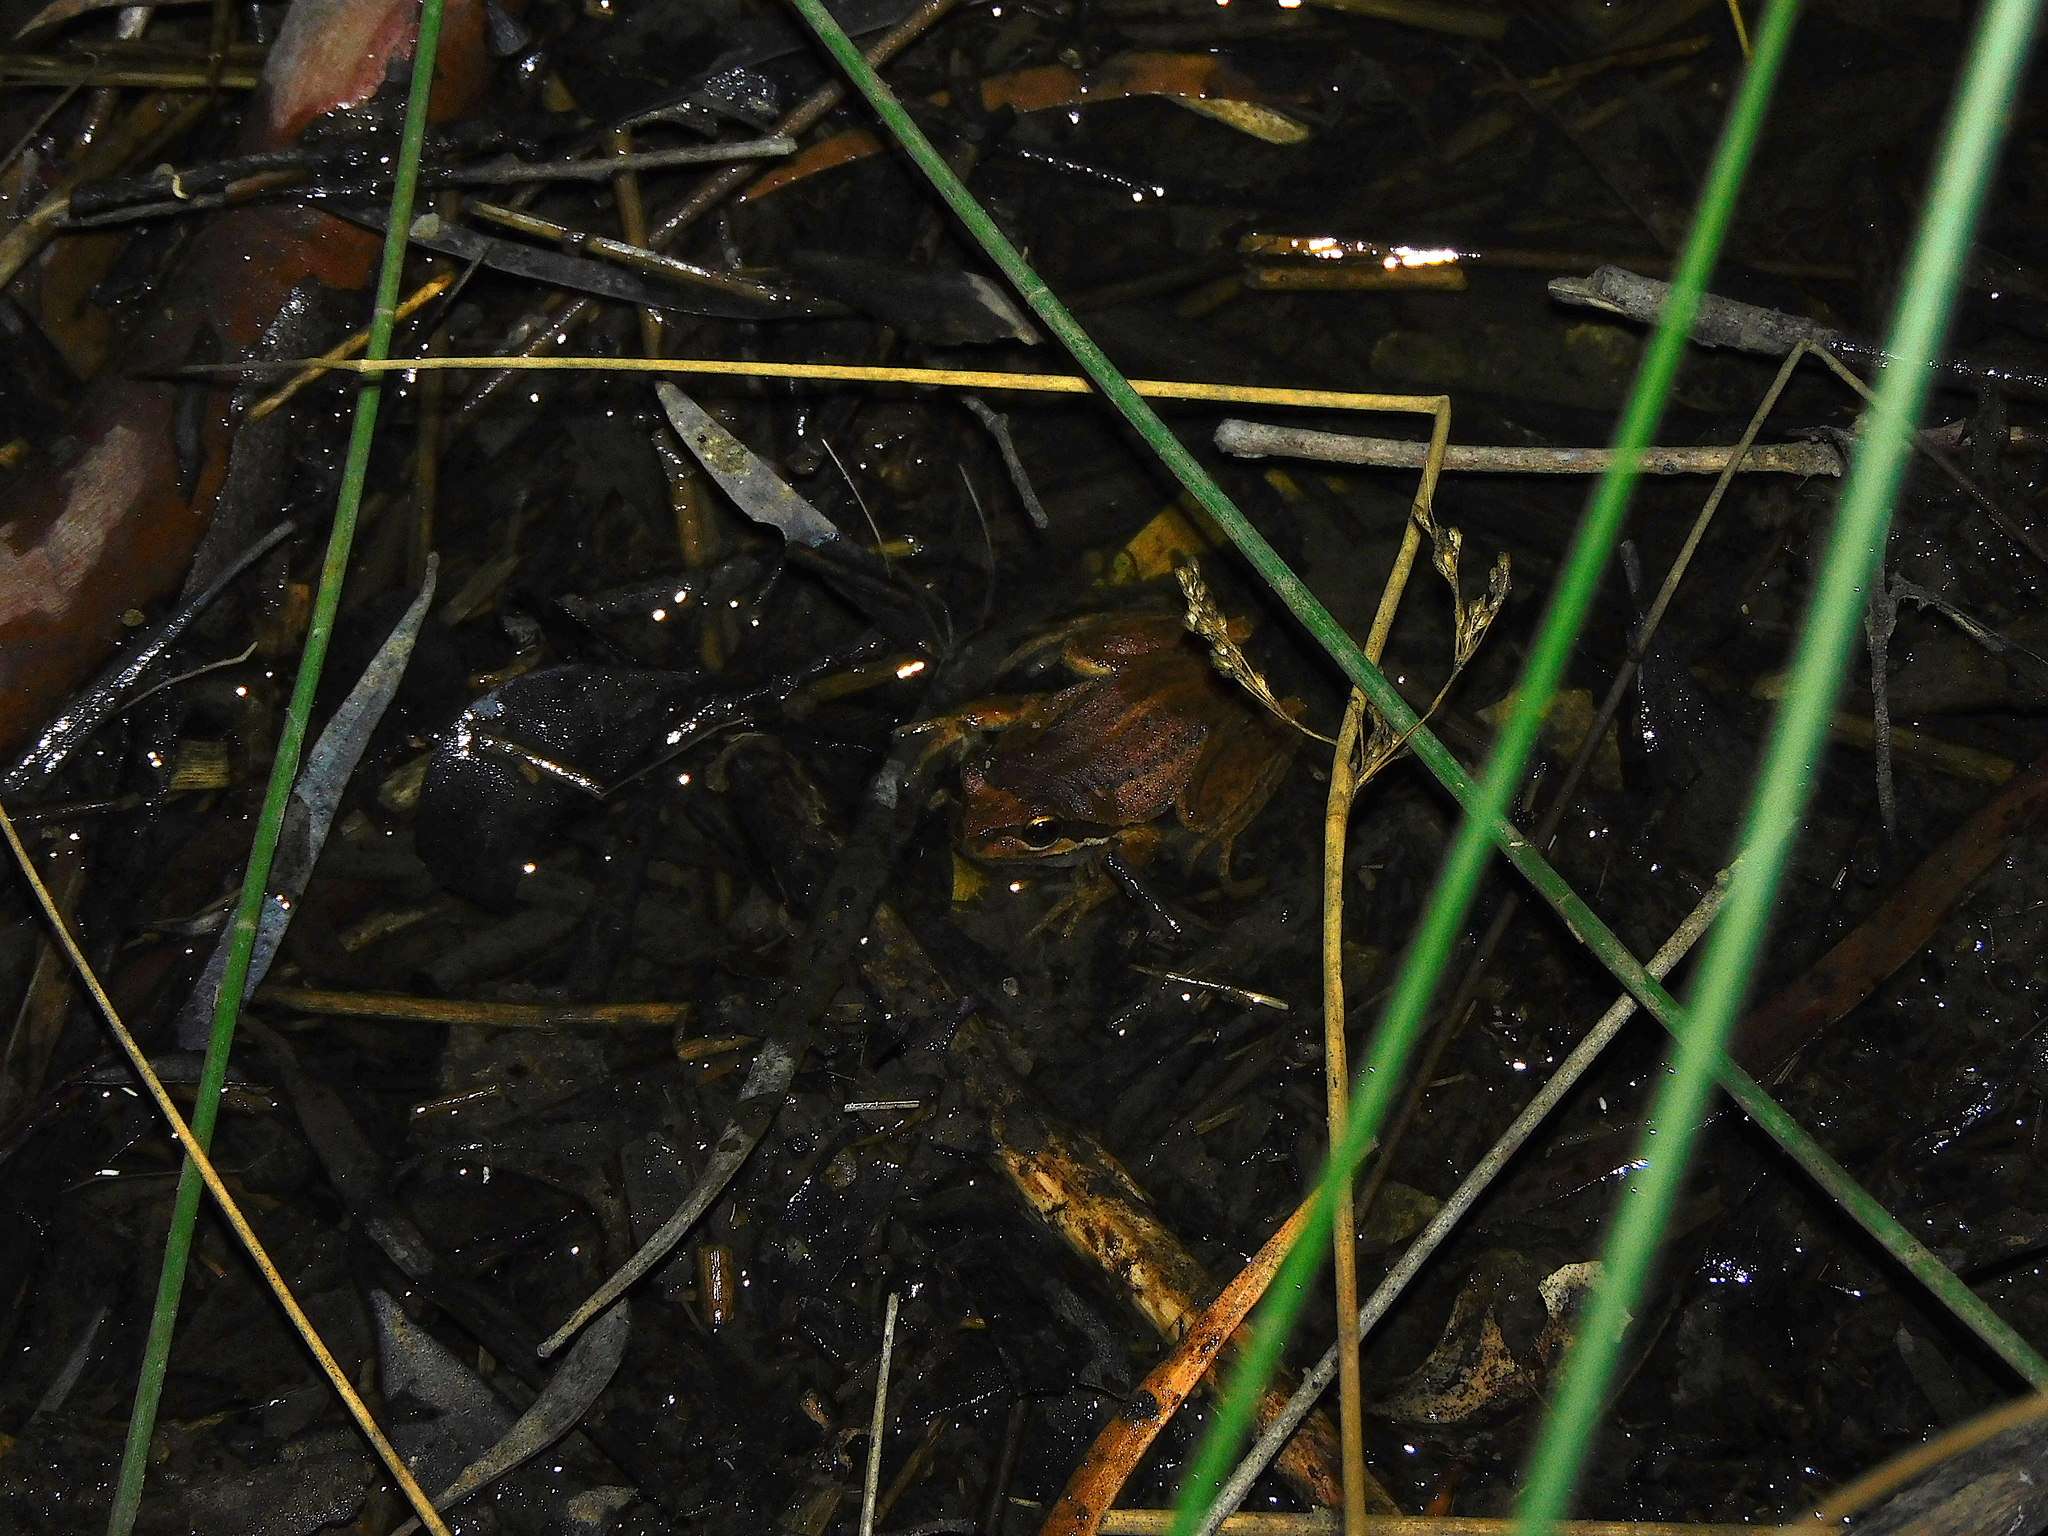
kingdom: Animalia
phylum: Chordata
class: Amphibia
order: Anura
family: Pelodryadidae
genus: Litoria
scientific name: Litoria ewingii
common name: Southern brown tree frog
